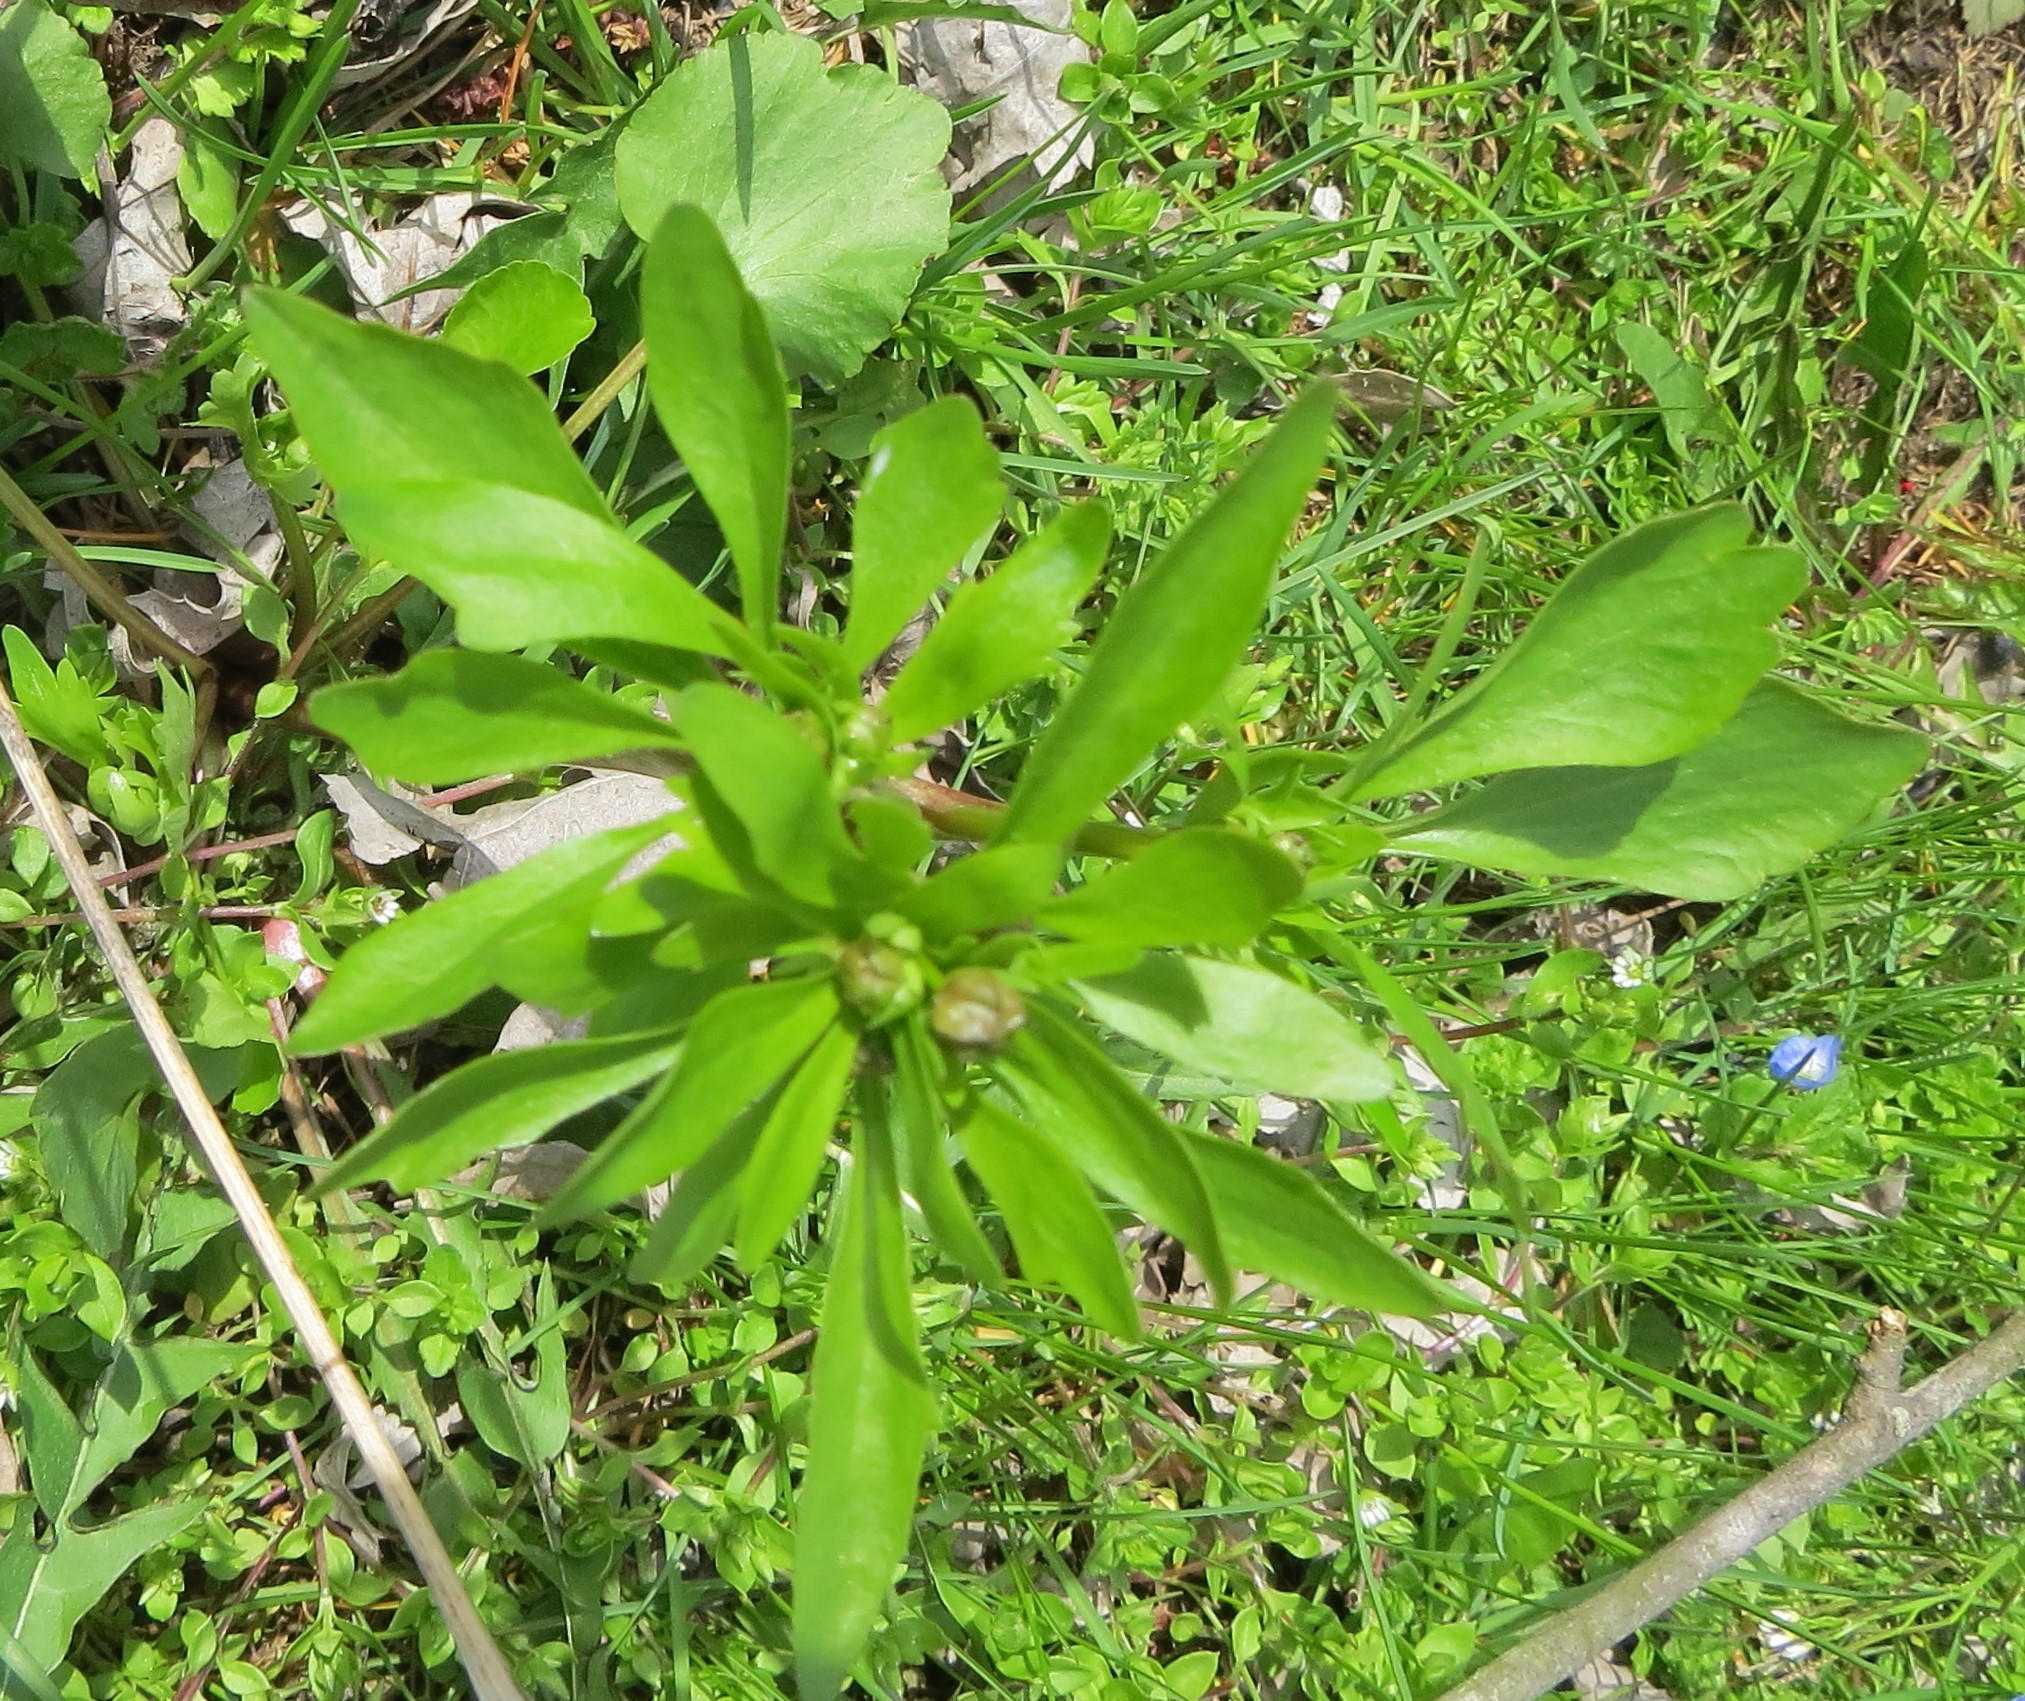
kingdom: Plantae
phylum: Tracheophyta
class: Magnoliopsida
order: Ranunculales
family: Ranunculaceae
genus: Ranunculus
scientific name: Ranunculus abortivus
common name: Early wood buttercup
